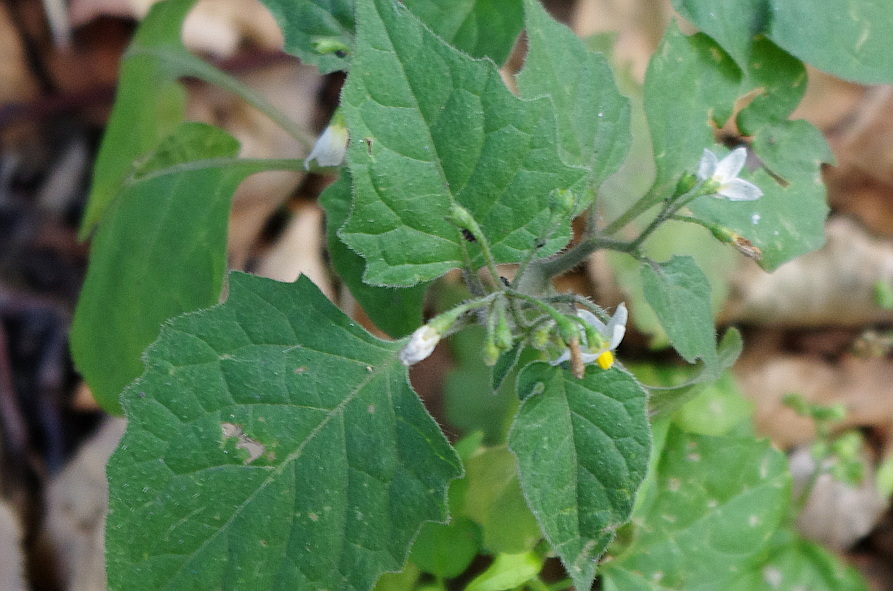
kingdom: Plantae
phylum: Tracheophyta
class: Magnoliopsida
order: Solanales
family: Solanaceae
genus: Solanum
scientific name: Solanum nigrum
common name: Black nightshade
